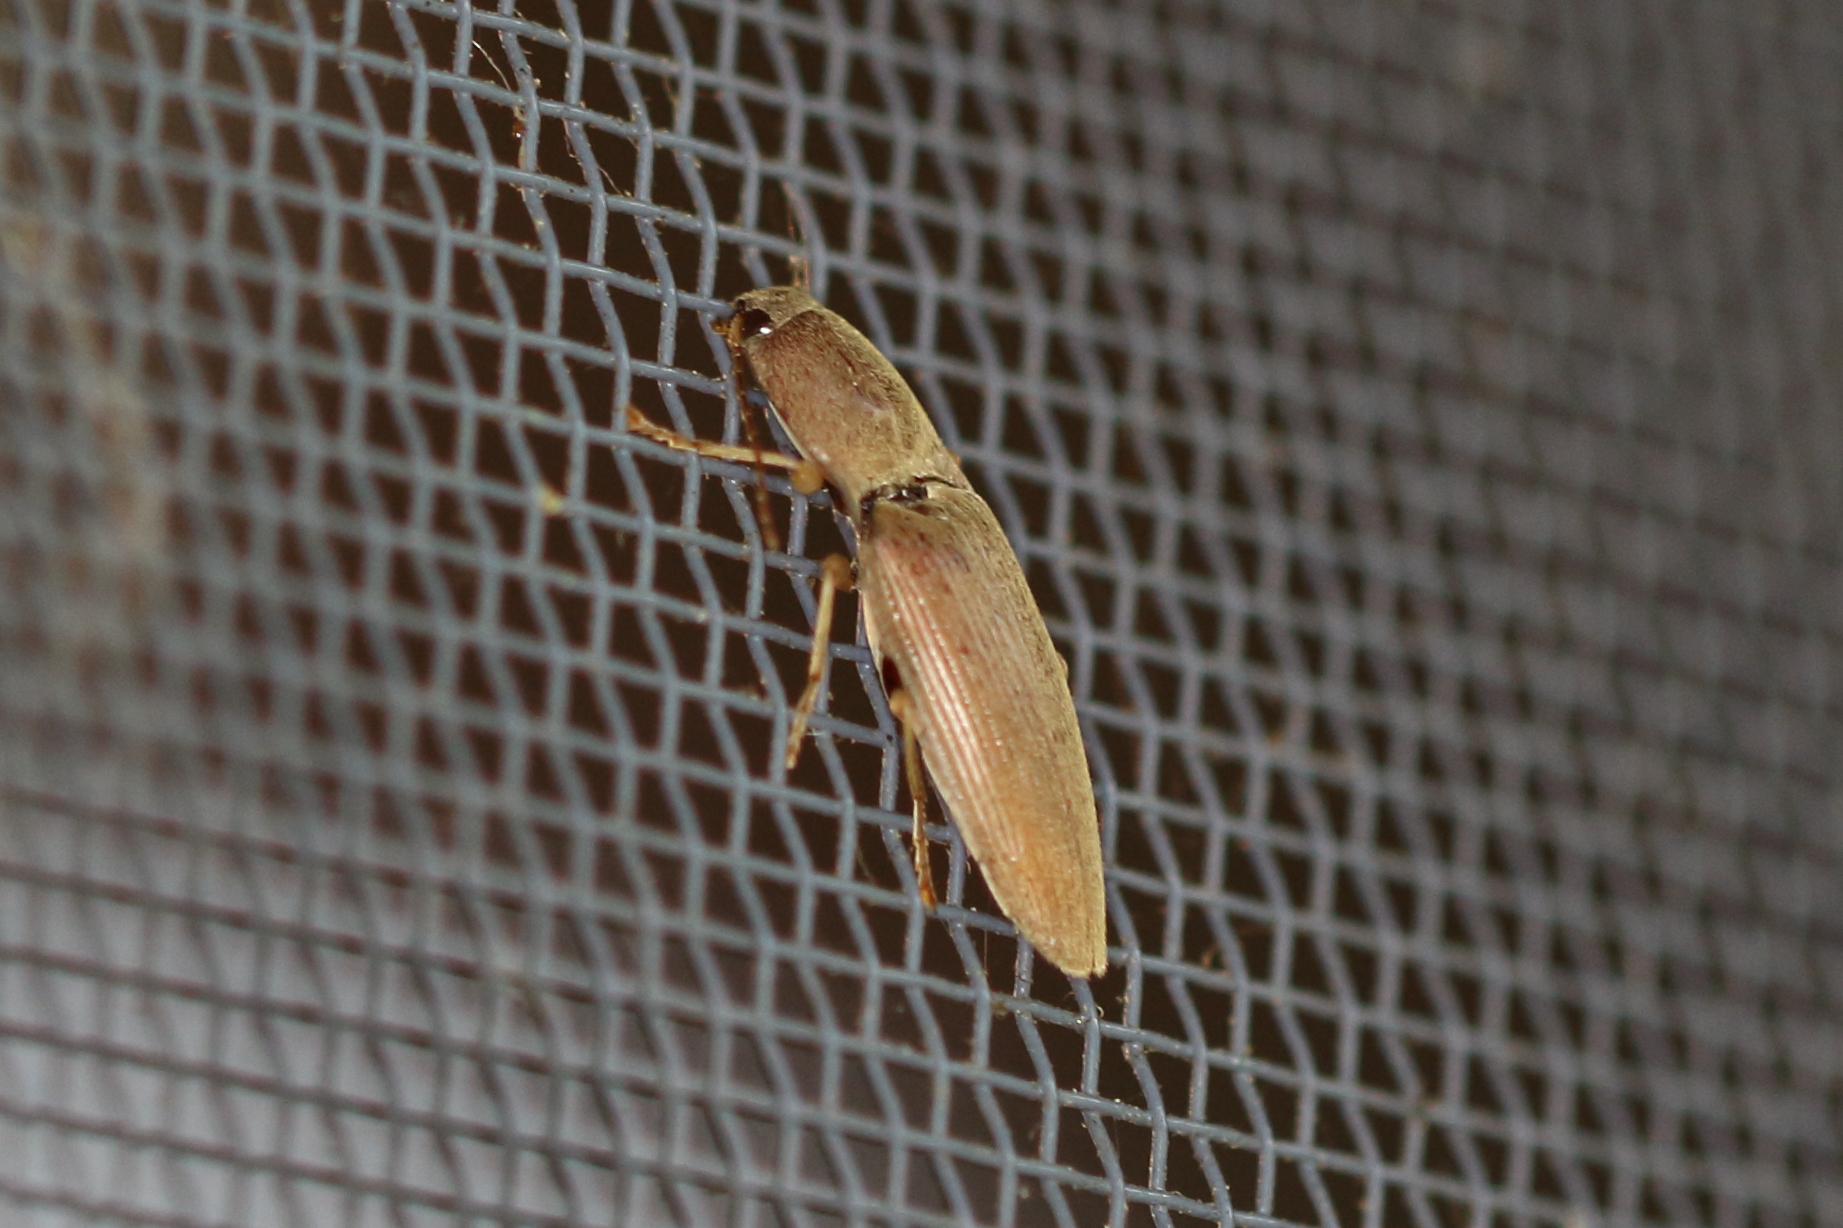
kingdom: Animalia
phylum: Arthropoda
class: Insecta
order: Coleoptera
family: Elateridae
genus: Monocrepidius
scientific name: Monocrepidius lividus
